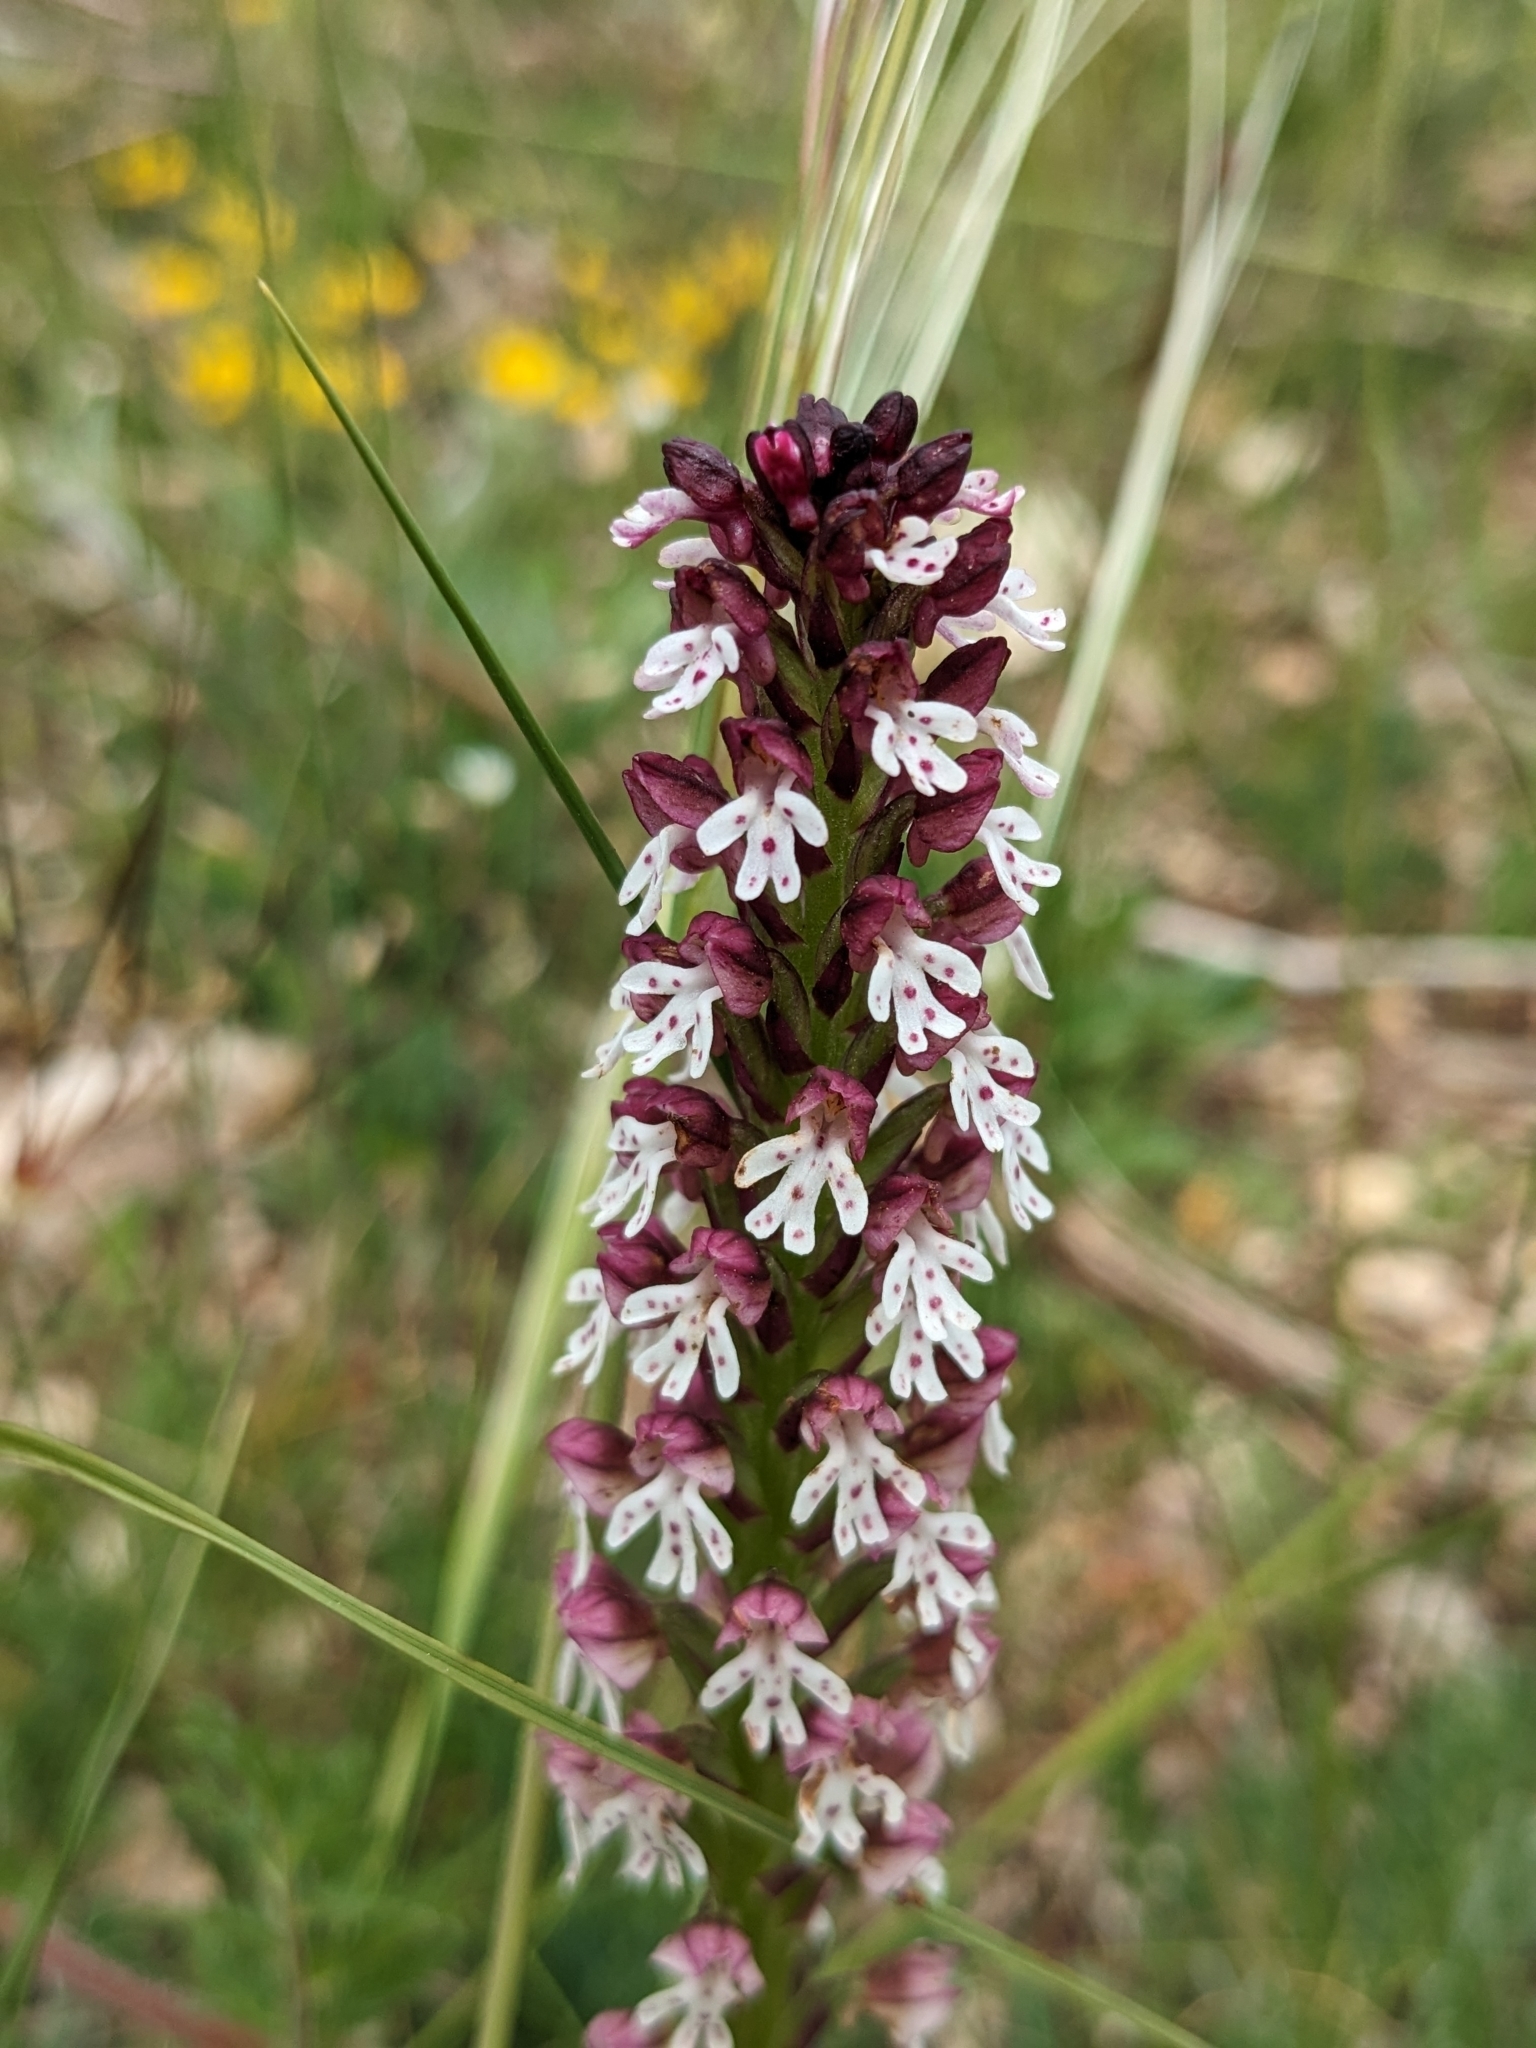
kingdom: Plantae
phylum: Tracheophyta
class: Liliopsida
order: Asparagales
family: Orchidaceae
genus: Neotinea
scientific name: Neotinea ustulata
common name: Burnt orchid
